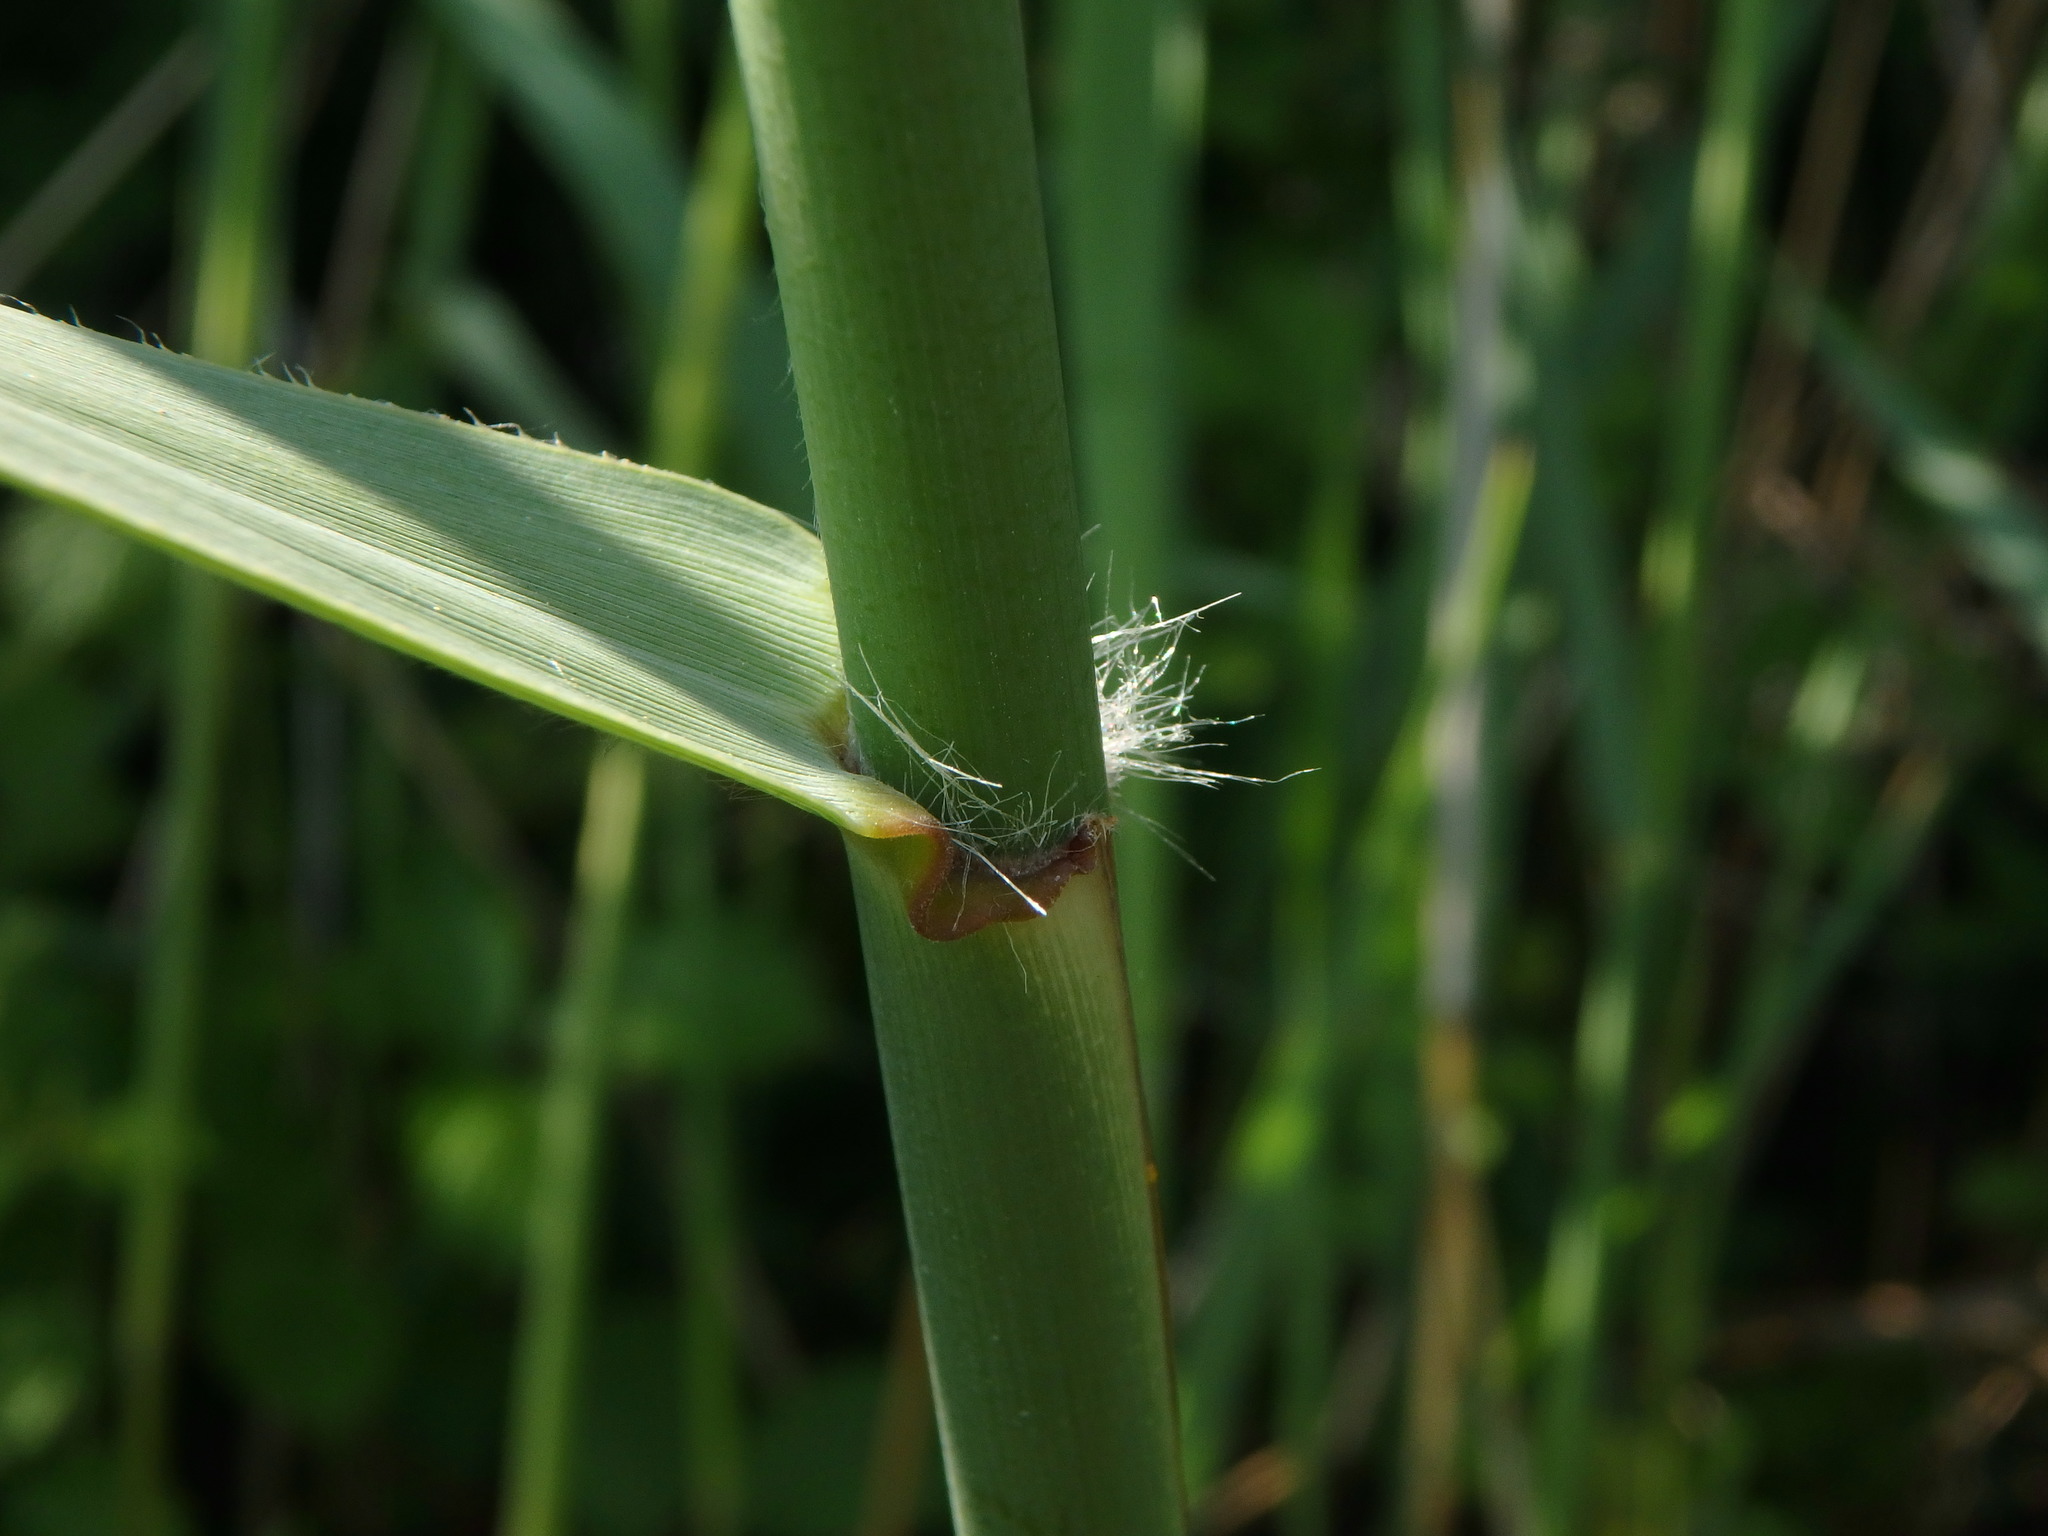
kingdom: Plantae
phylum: Tracheophyta
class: Liliopsida
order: Poales
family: Poaceae
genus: Phragmites
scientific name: Phragmites australis
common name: Common reed
